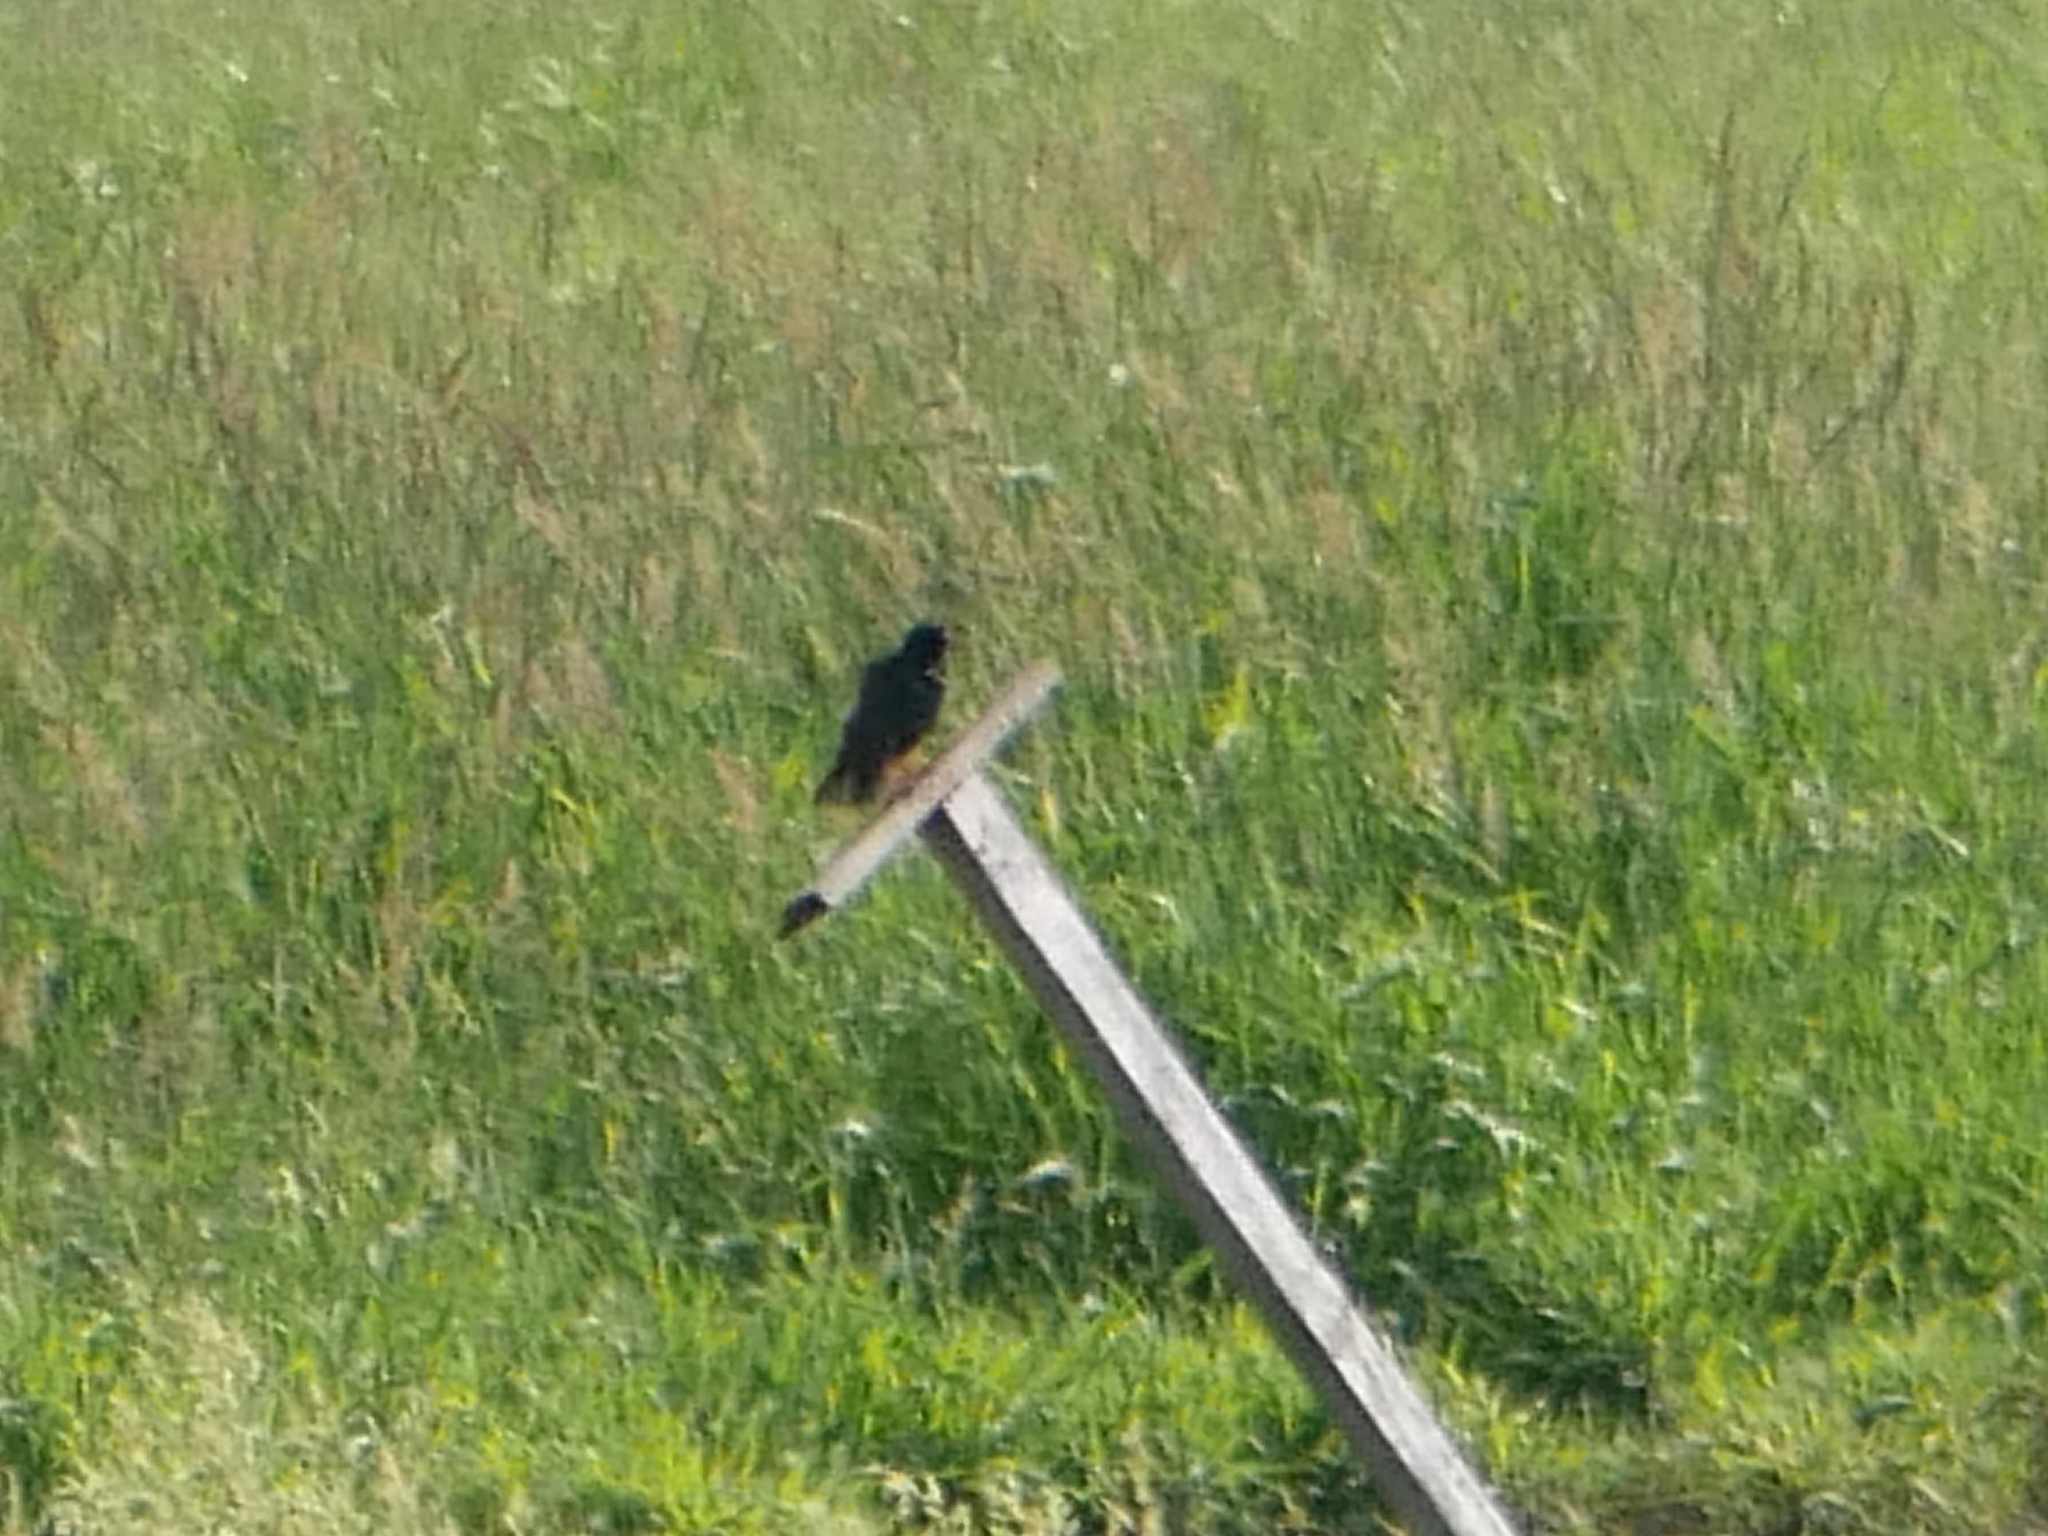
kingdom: Animalia
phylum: Chordata
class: Aves
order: Passeriformes
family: Sturnidae
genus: Sturnus
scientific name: Sturnus vulgaris
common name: Common starling
